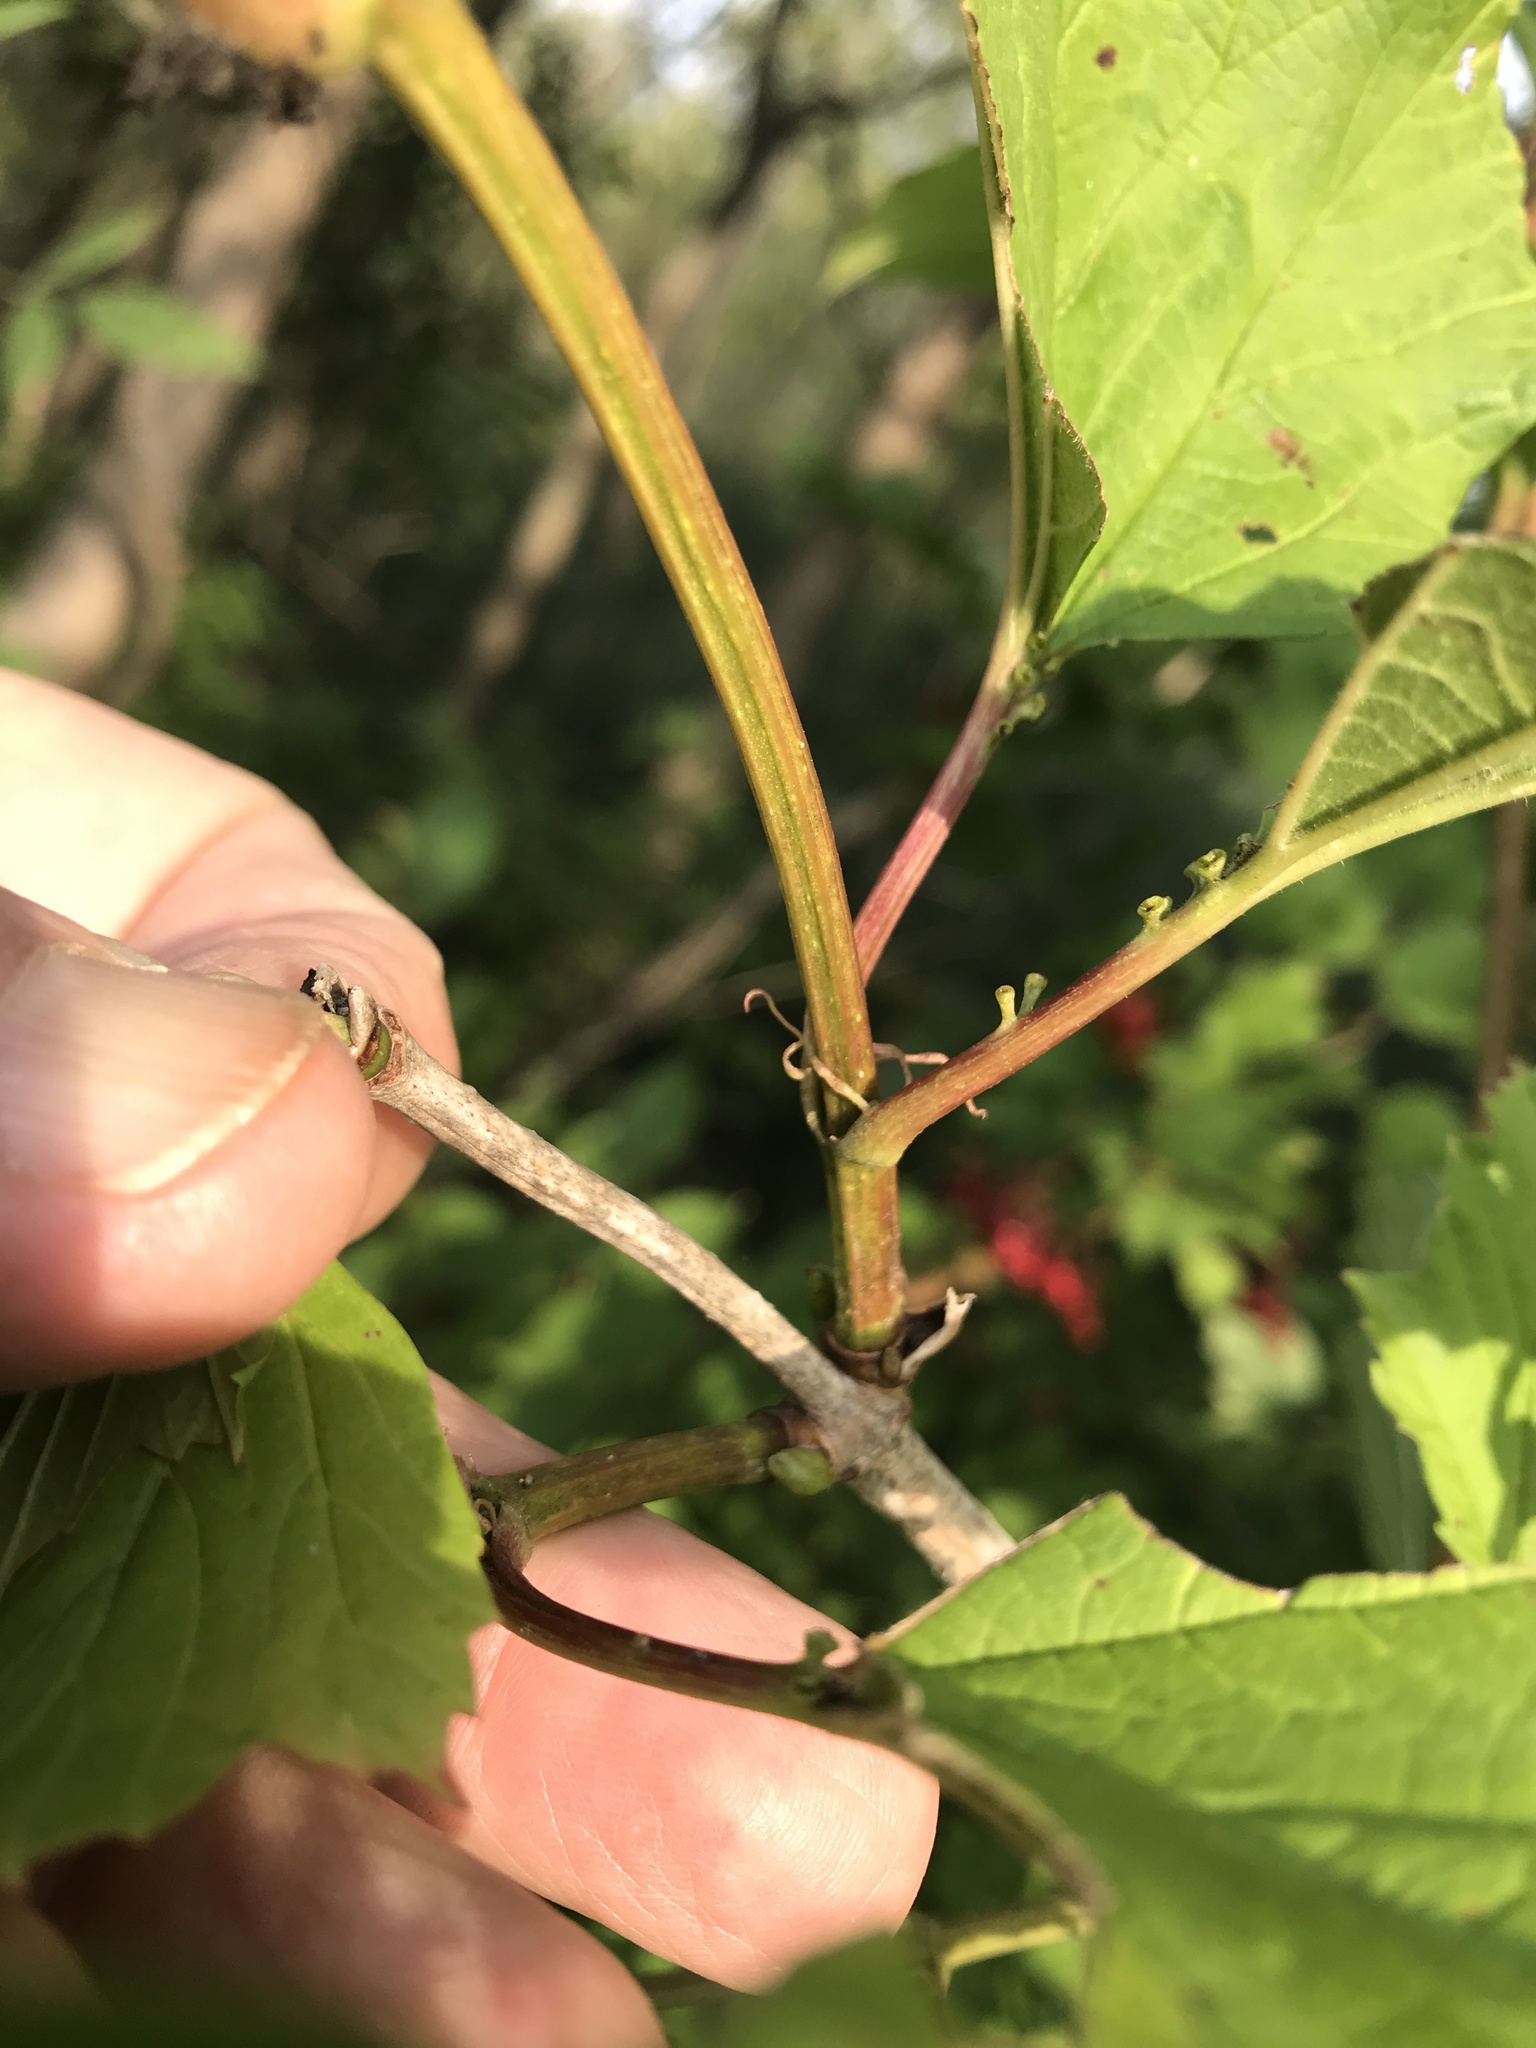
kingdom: Plantae
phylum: Tracheophyta
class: Magnoliopsida
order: Dipsacales
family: Viburnaceae
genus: Viburnum
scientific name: Viburnum opulus
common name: Guelder-rose
